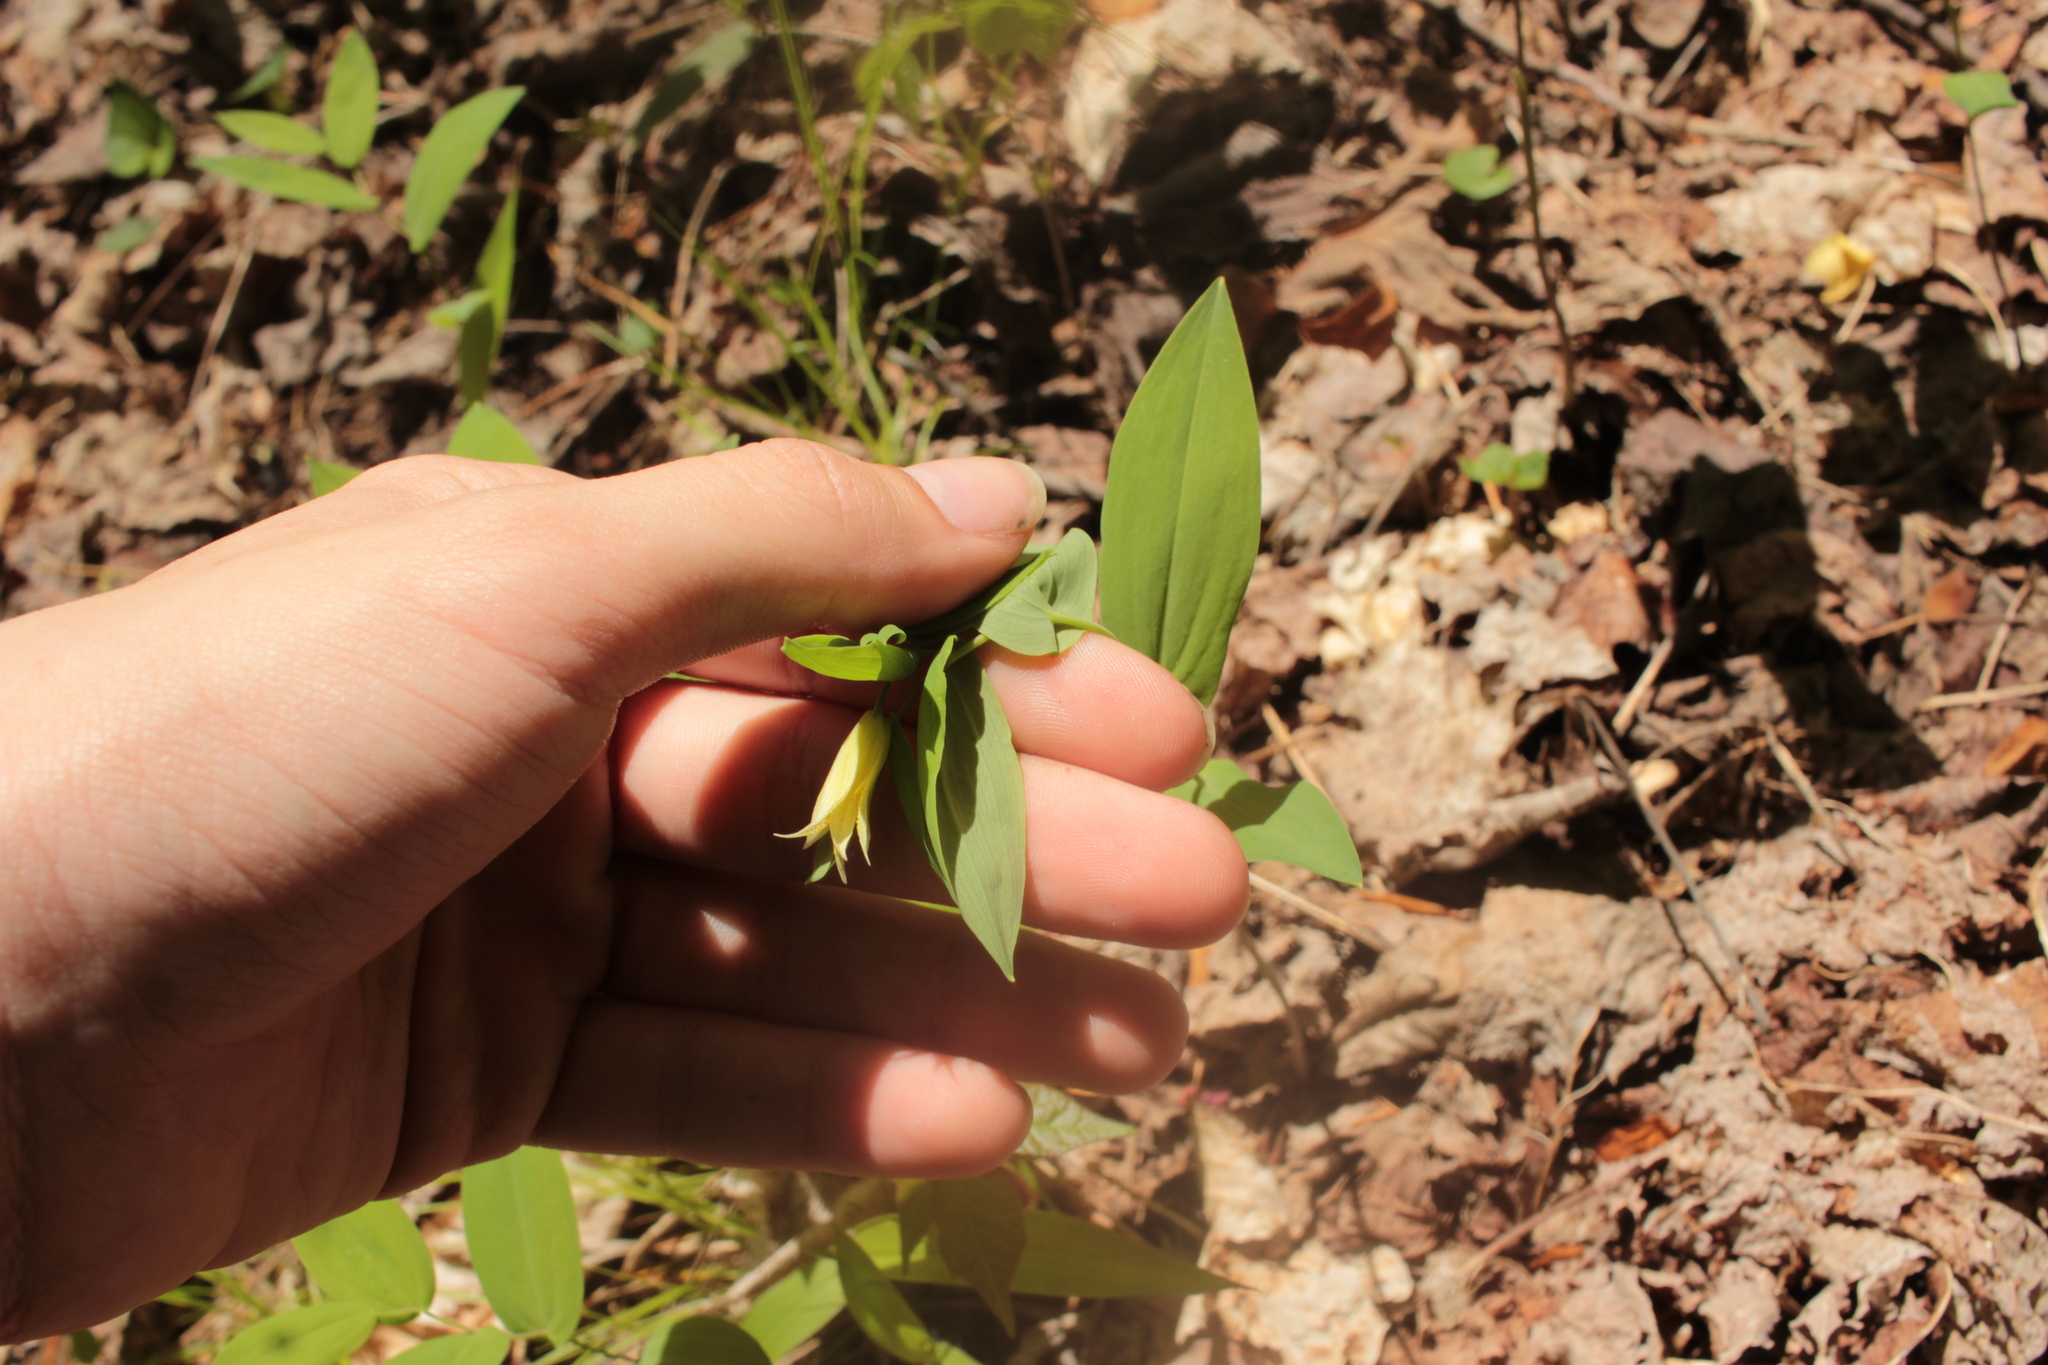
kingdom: Plantae
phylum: Tracheophyta
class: Liliopsida
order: Liliales
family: Colchicaceae
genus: Uvularia
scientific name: Uvularia perfoliata
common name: Perfoliate bellwort
